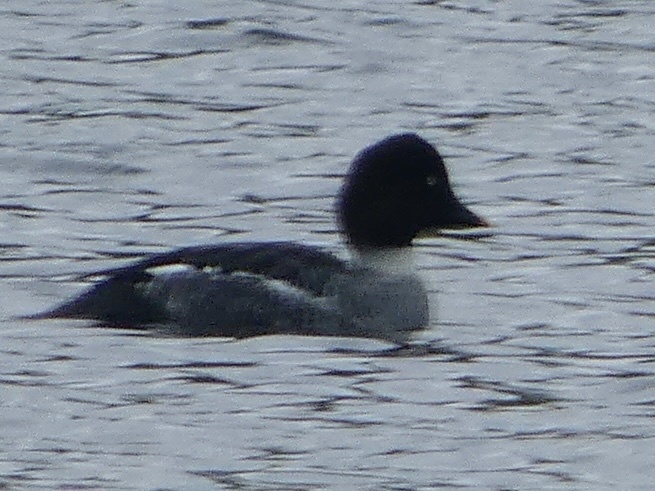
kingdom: Animalia
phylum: Chordata
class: Aves
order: Anseriformes
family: Anatidae
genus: Bucephala
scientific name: Bucephala clangula
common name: Common goldeneye
